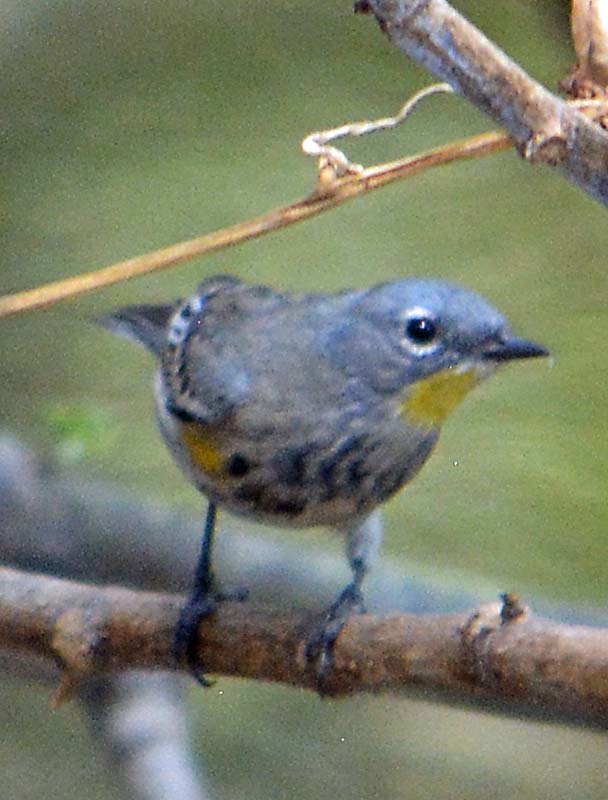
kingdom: Animalia
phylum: Chordata
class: Aves
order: Passeriformes
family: Parulidae
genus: Setophaga
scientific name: Setophaga coronata
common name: Myrtle warbler
